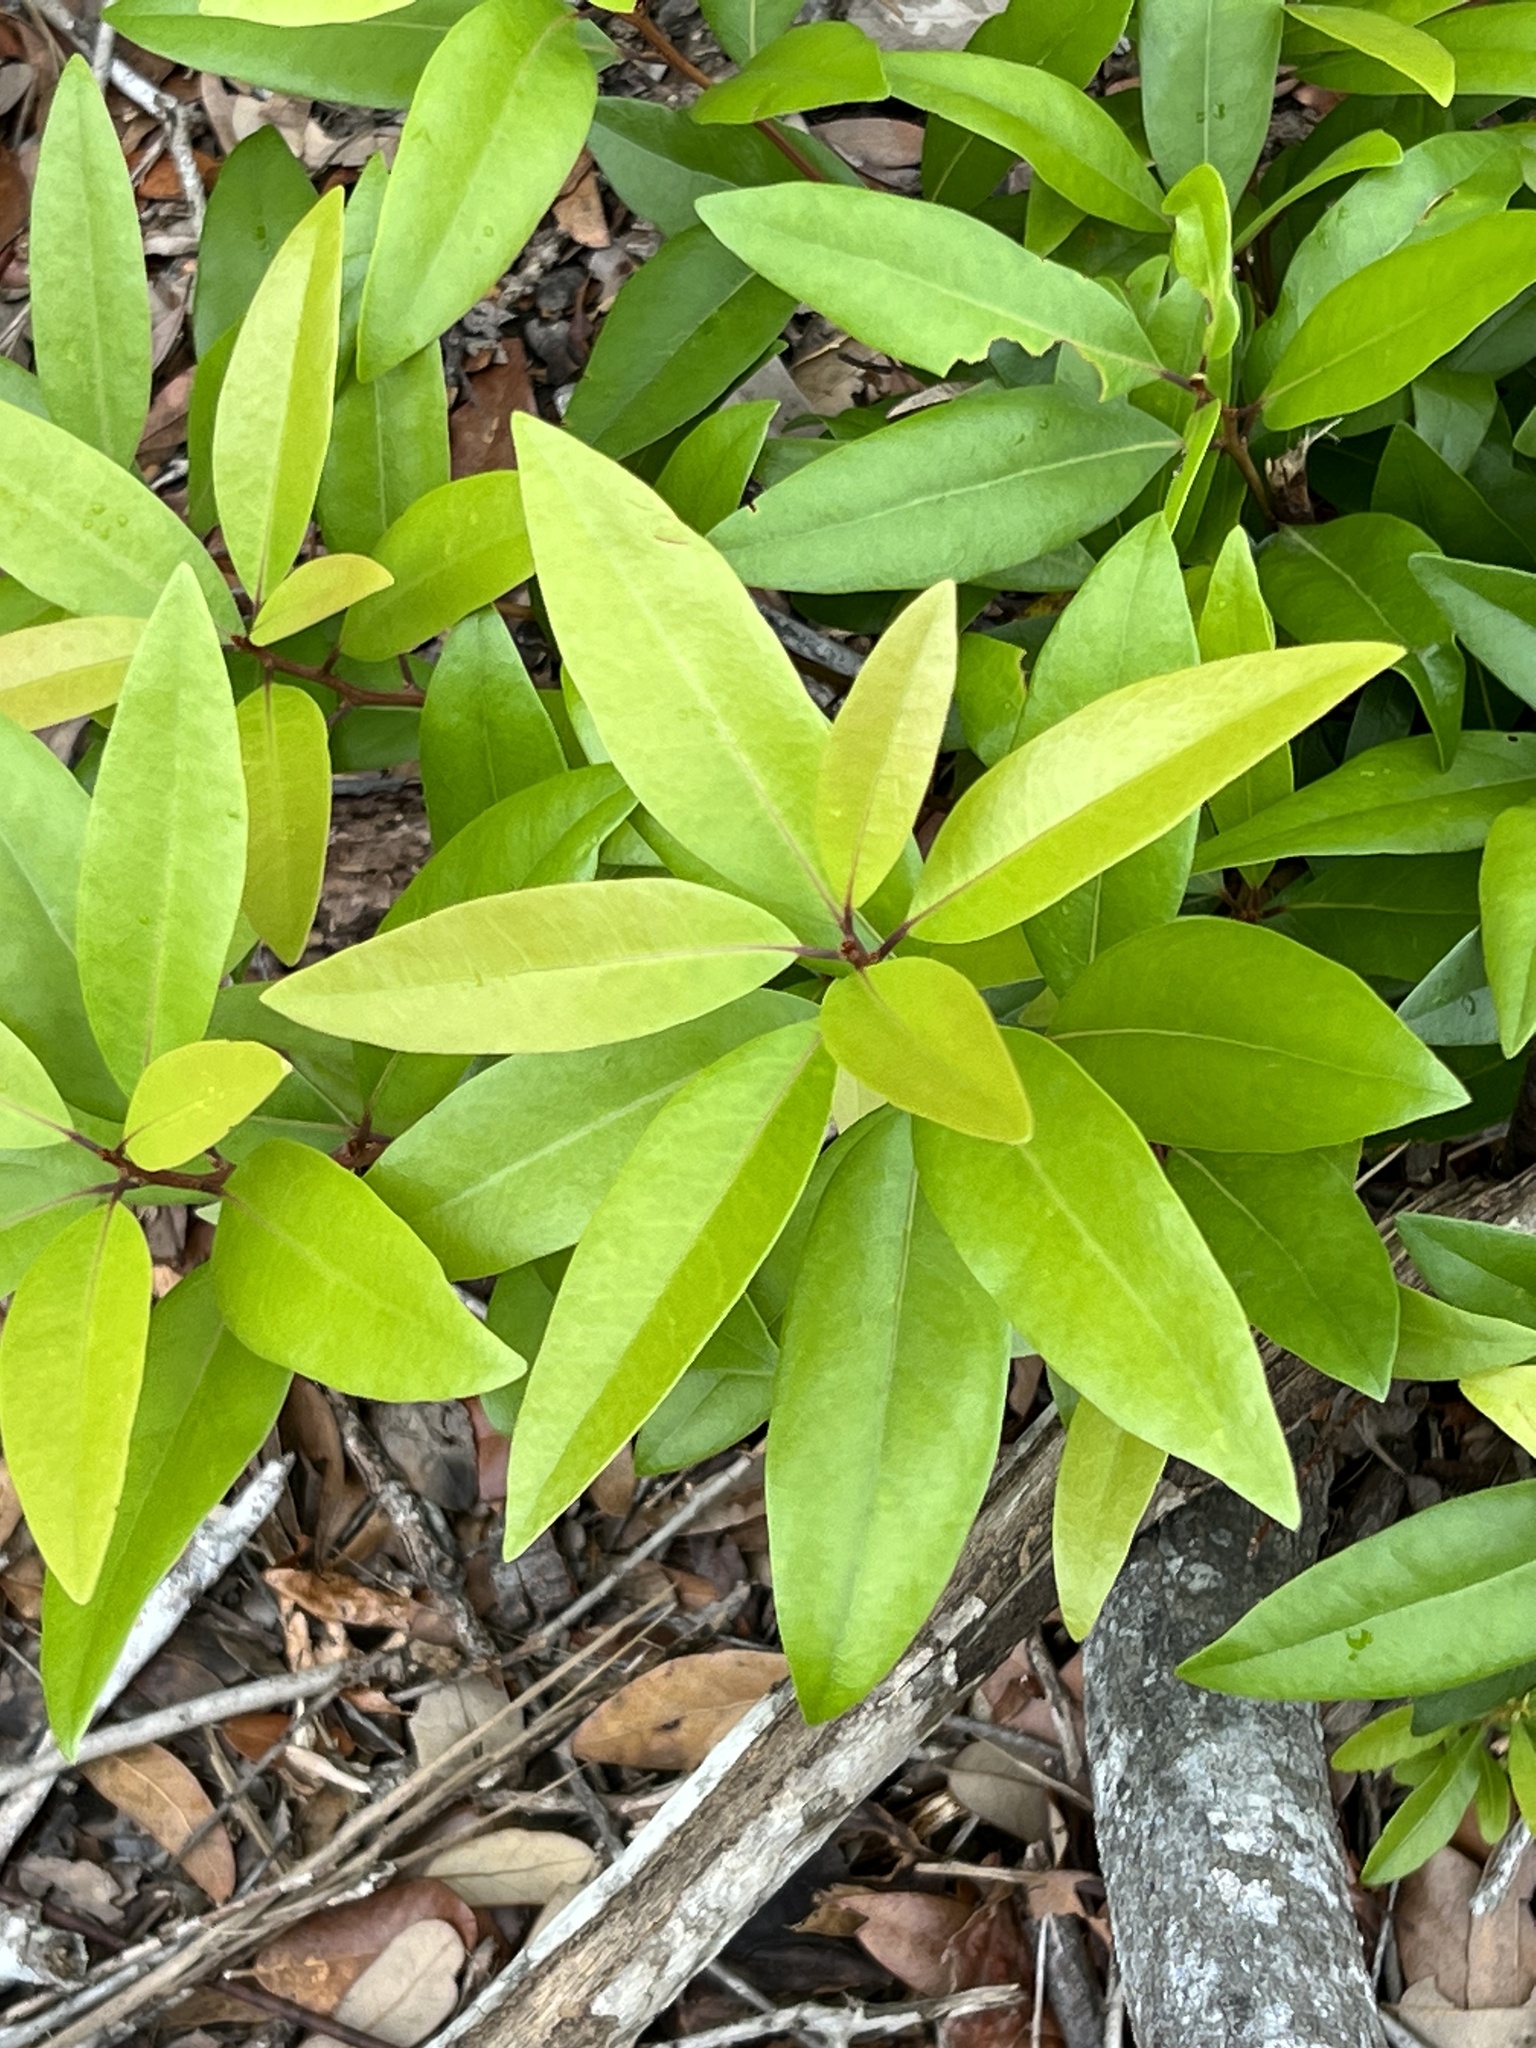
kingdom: Plantae
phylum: Tracheophyta
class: Magnoliopsida
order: Laurales
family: Lauraceae
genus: Persea
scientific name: Persea borbonia
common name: Redbay
